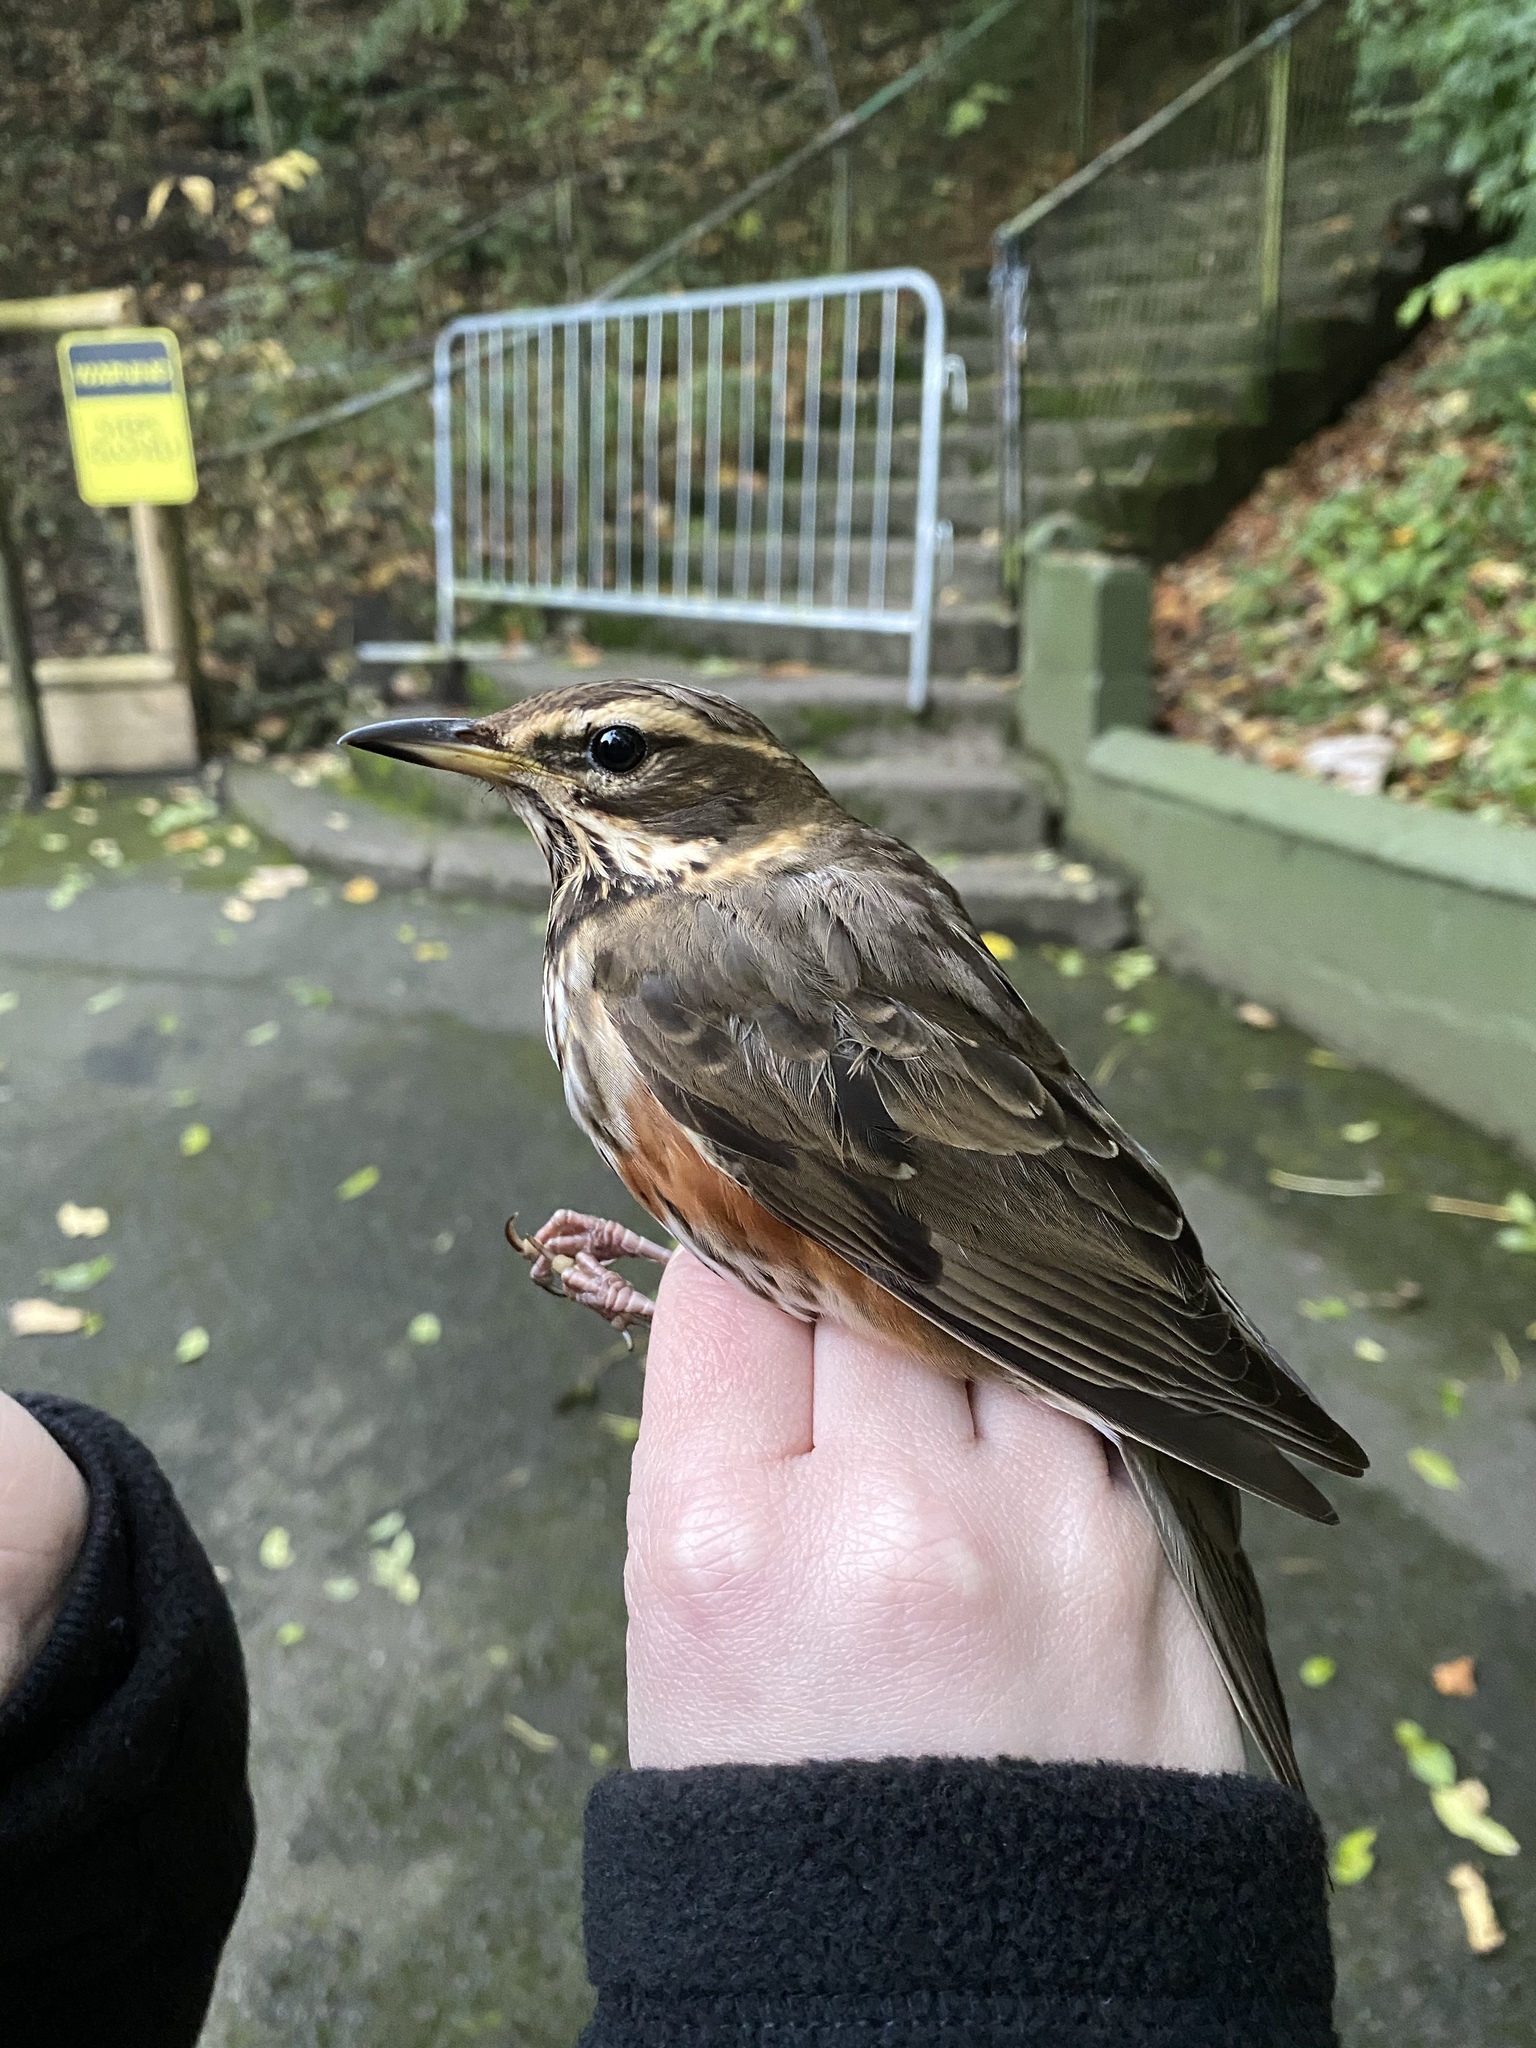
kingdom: Animalia
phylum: Chordata
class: Aves
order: Passeriformes
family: Turdidae
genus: Turdus
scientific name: Turdus iliacus
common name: Redwing
